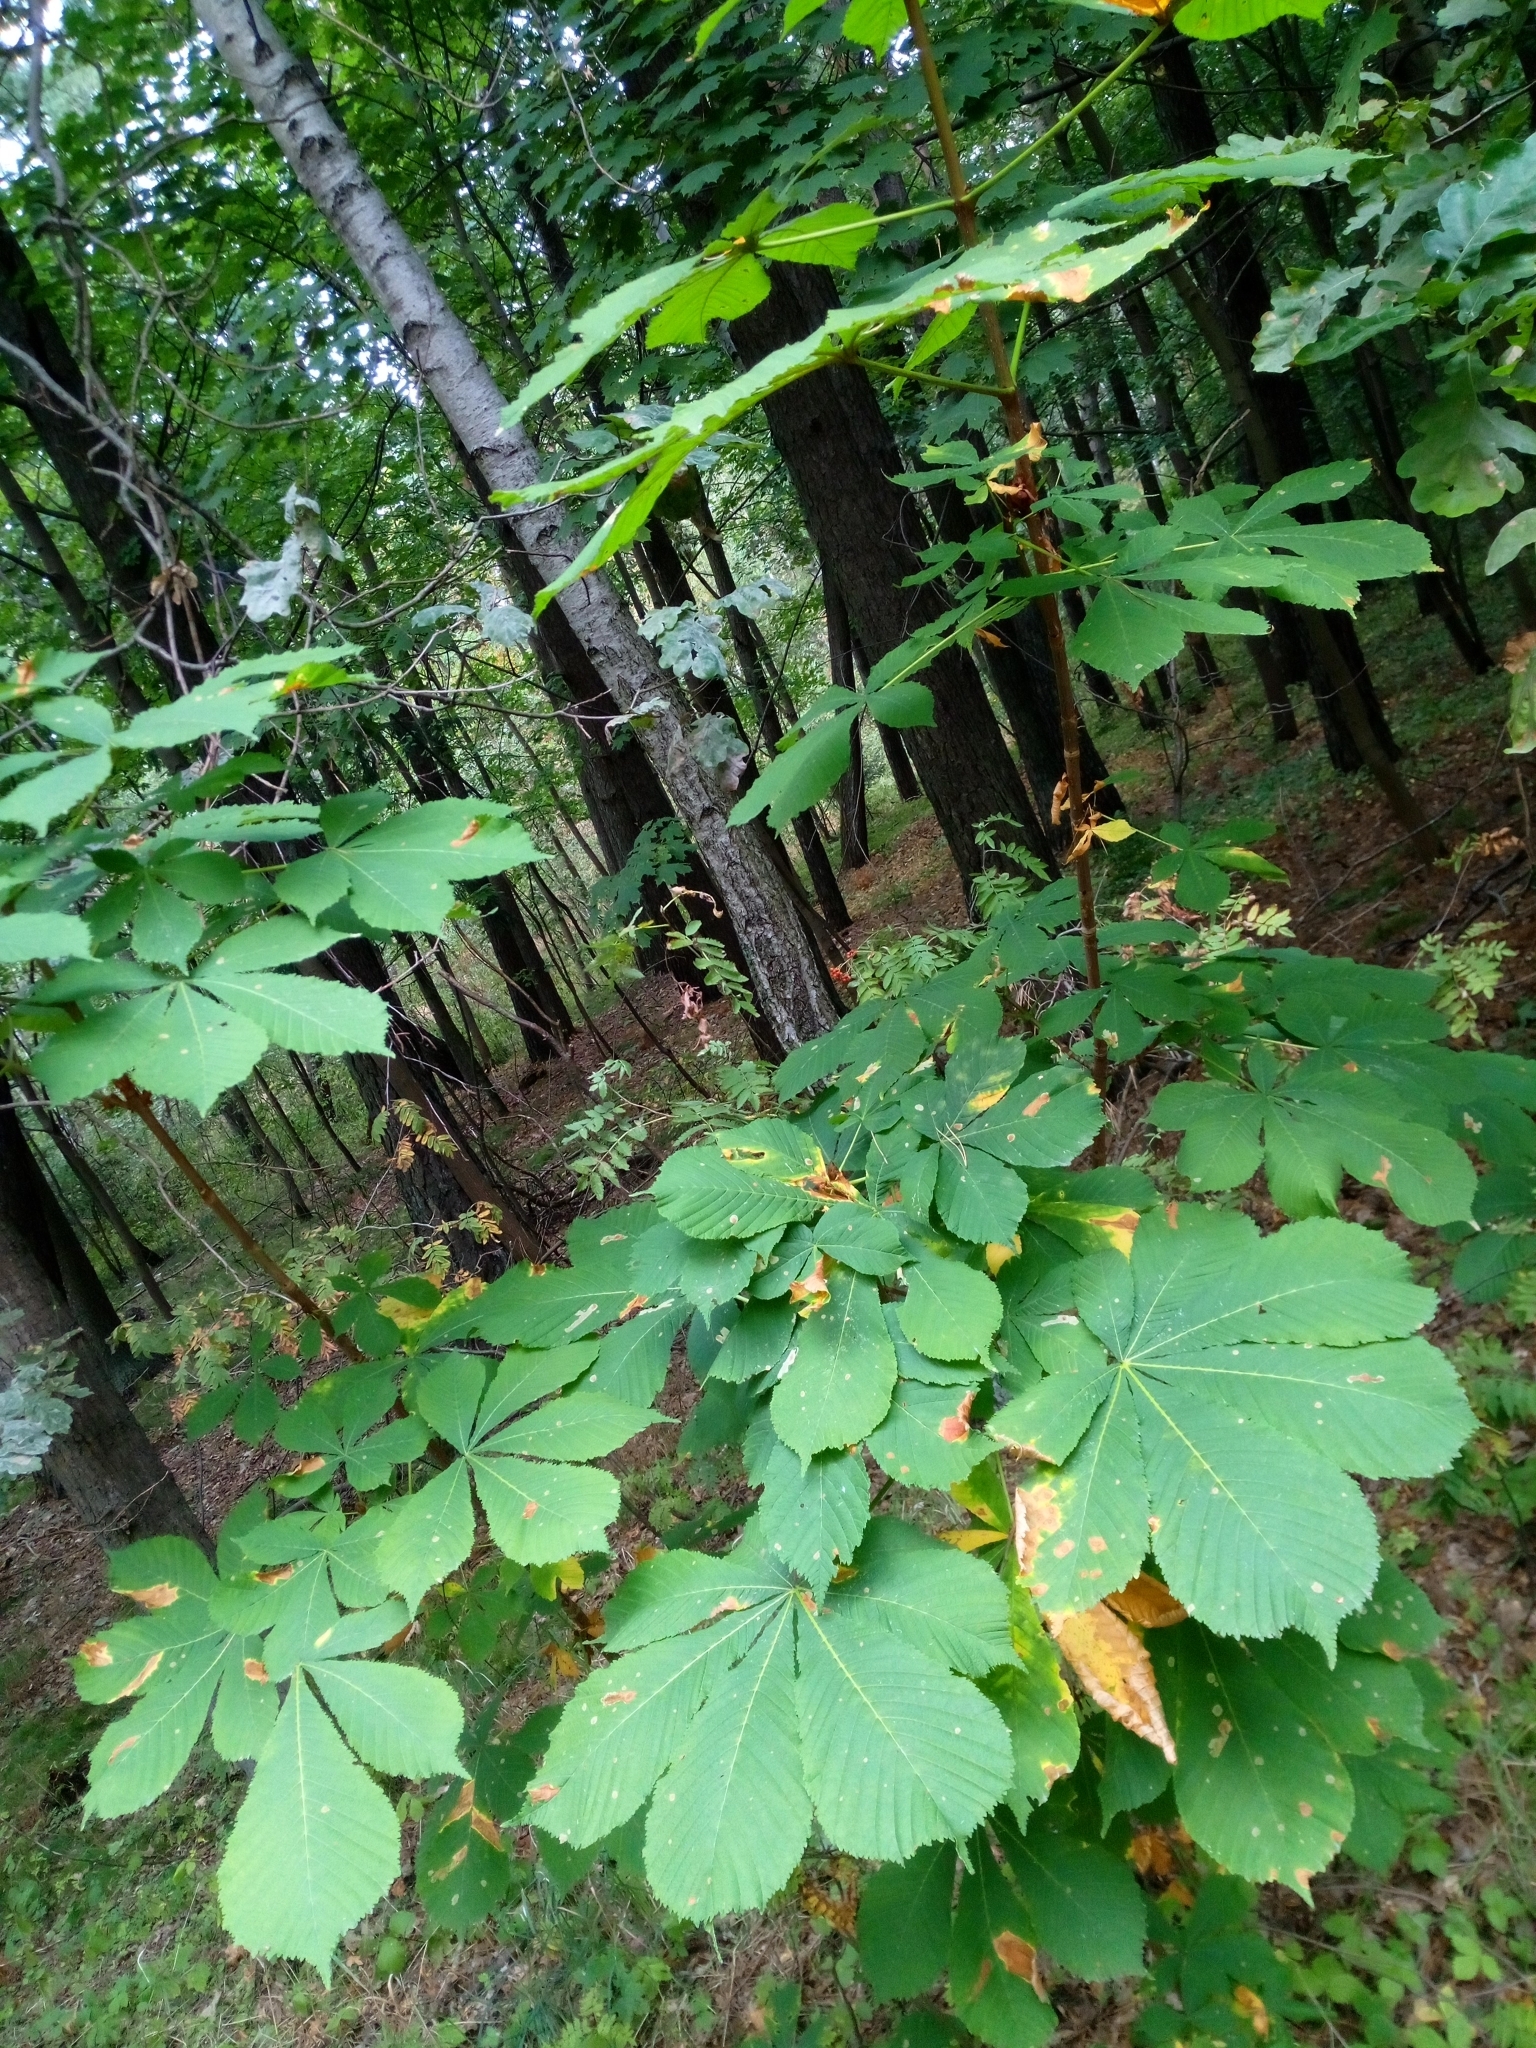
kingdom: Plantae
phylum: Tracheophyta
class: Magnoliopsida
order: Sapindales
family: Sapindaceae
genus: Aesculus
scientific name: Aesculus hippocastanum
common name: Horse-chestnut
